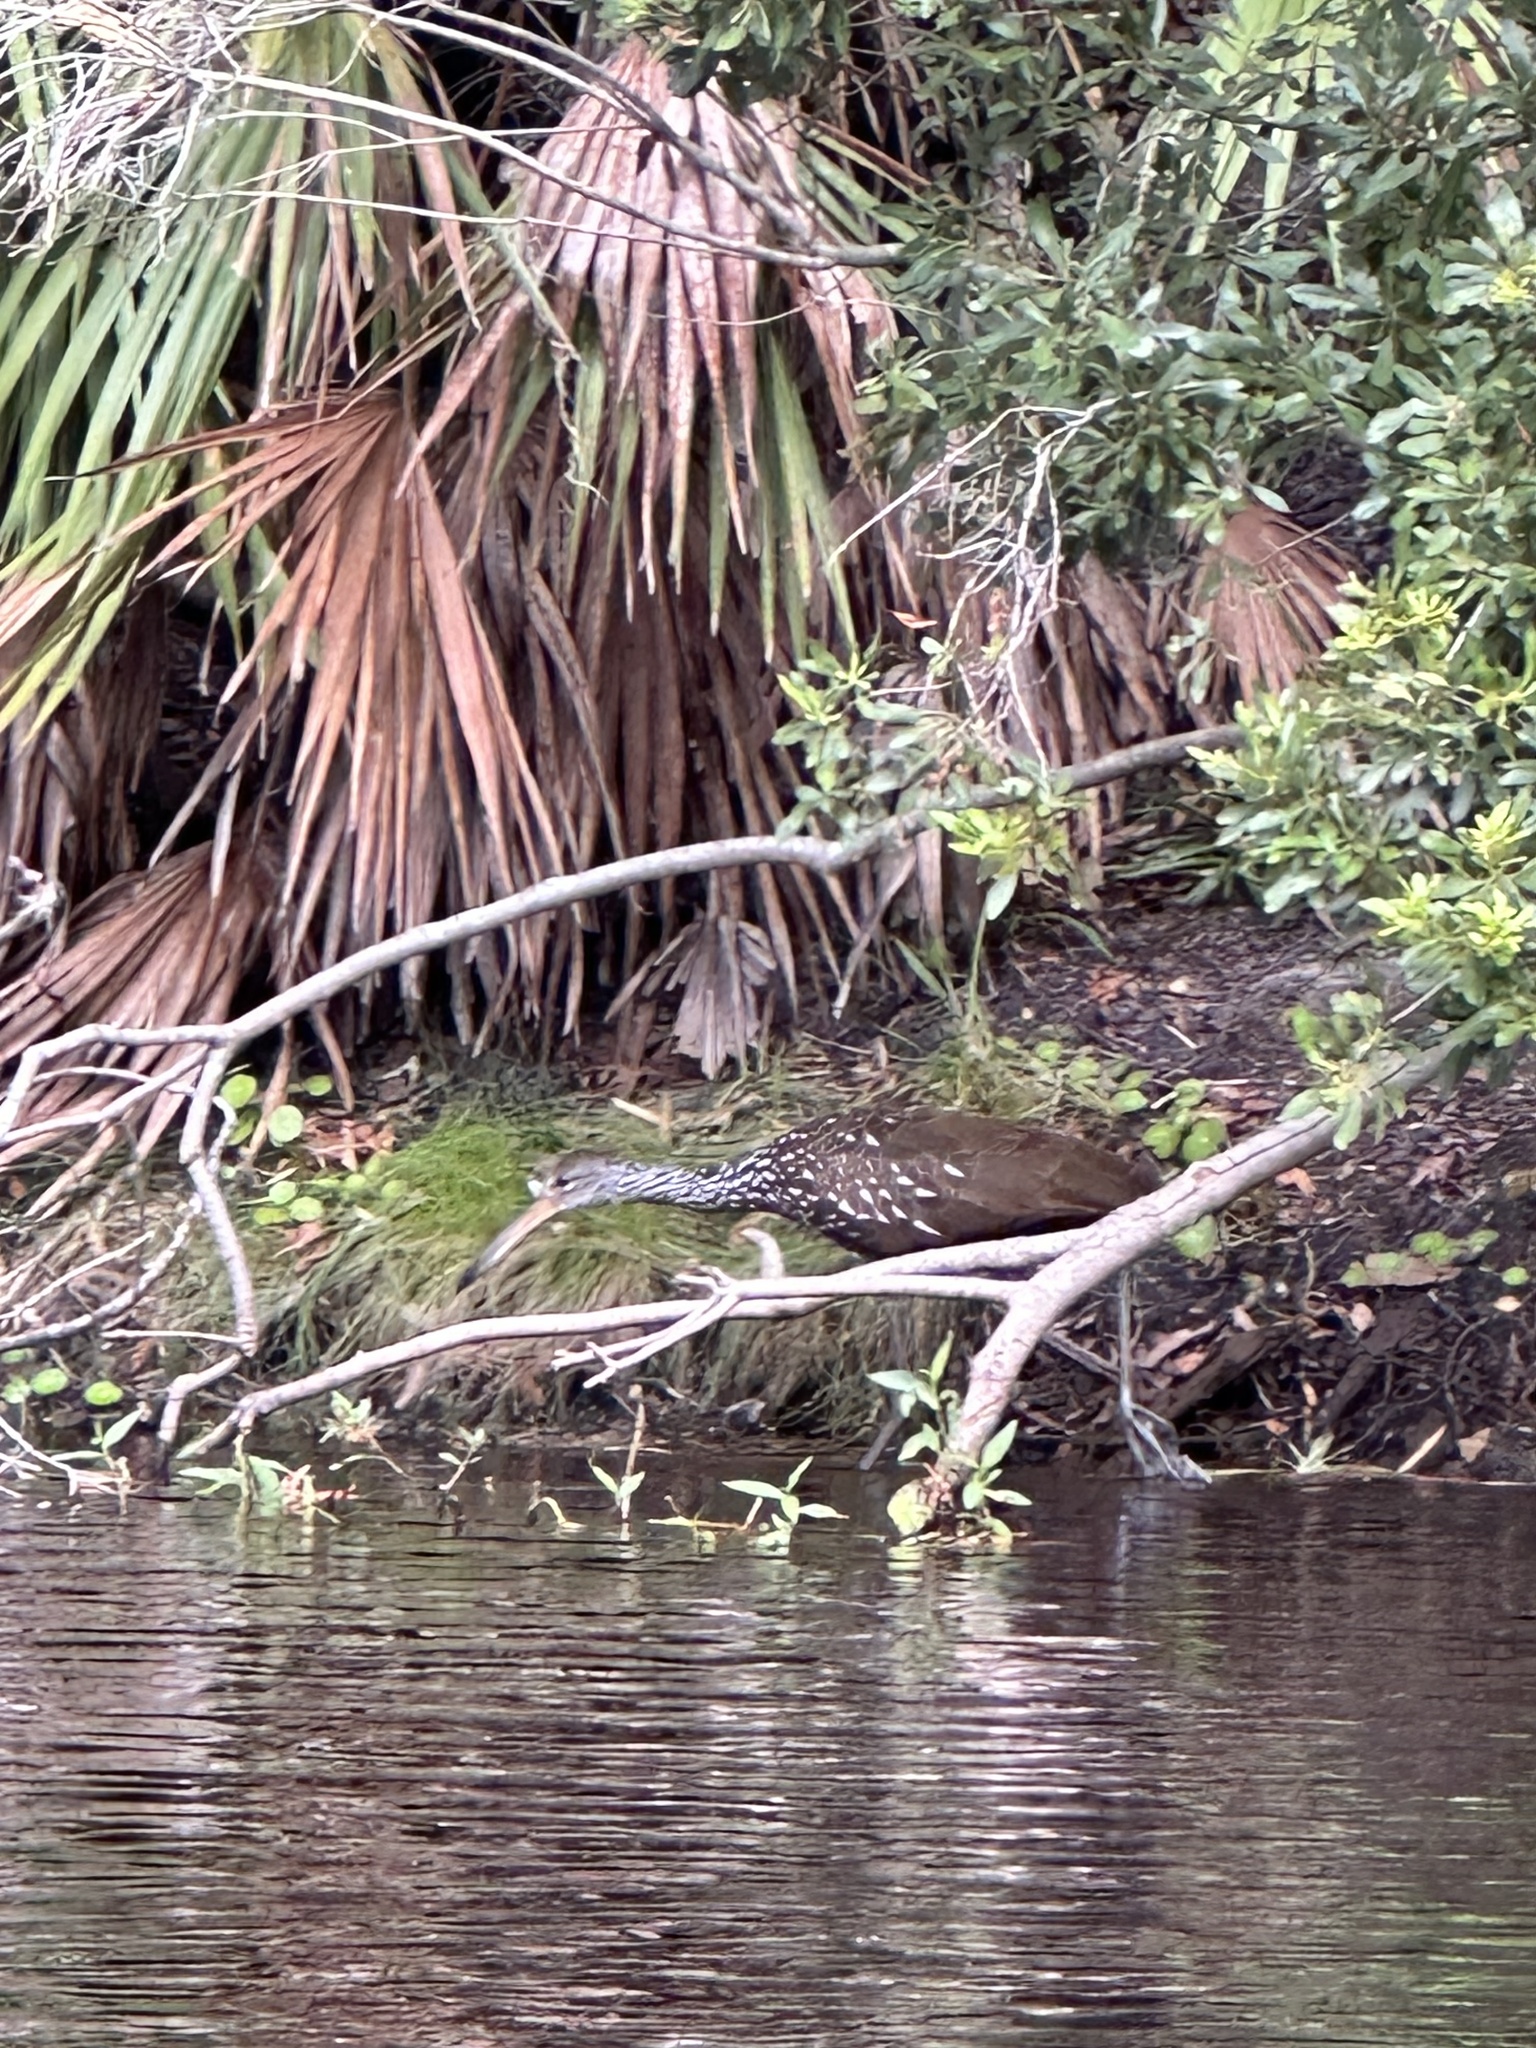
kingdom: Animalia
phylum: Chordata
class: Aves
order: Gruiformes
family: Aramidae
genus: Aramus
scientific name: Aramus guarauna
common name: Limpkin
